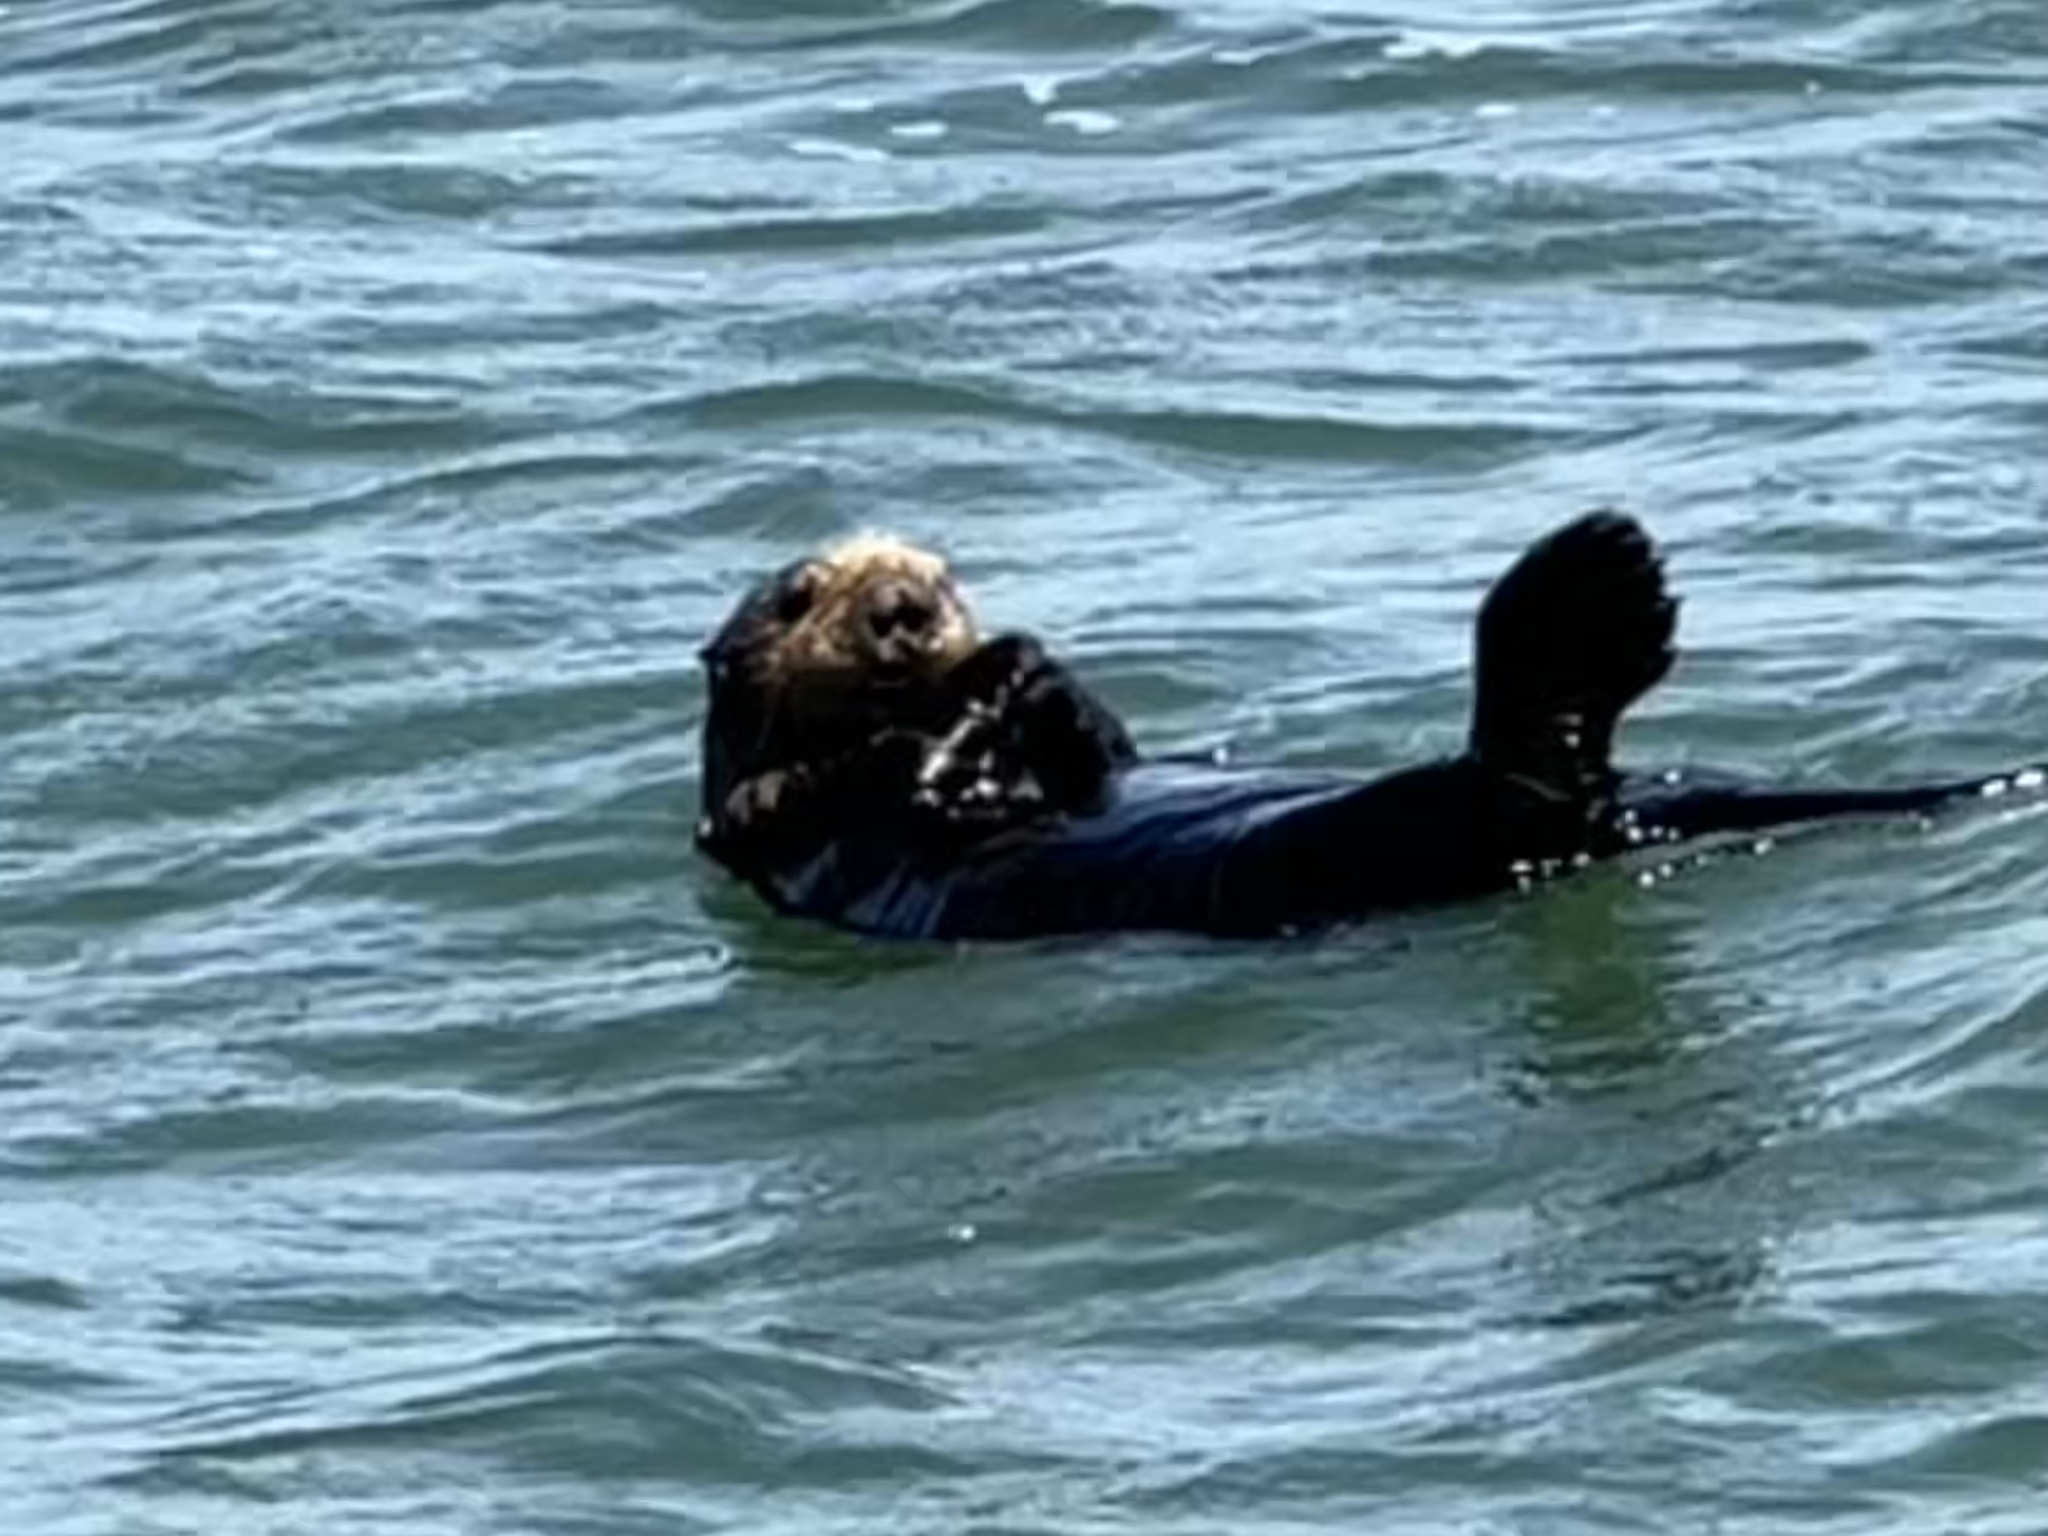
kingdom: Animalia
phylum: Chordata
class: Mammalia
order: Carnivora
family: Mustelidae
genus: Enhydra
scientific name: Enhydra lutris
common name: Sea otter
